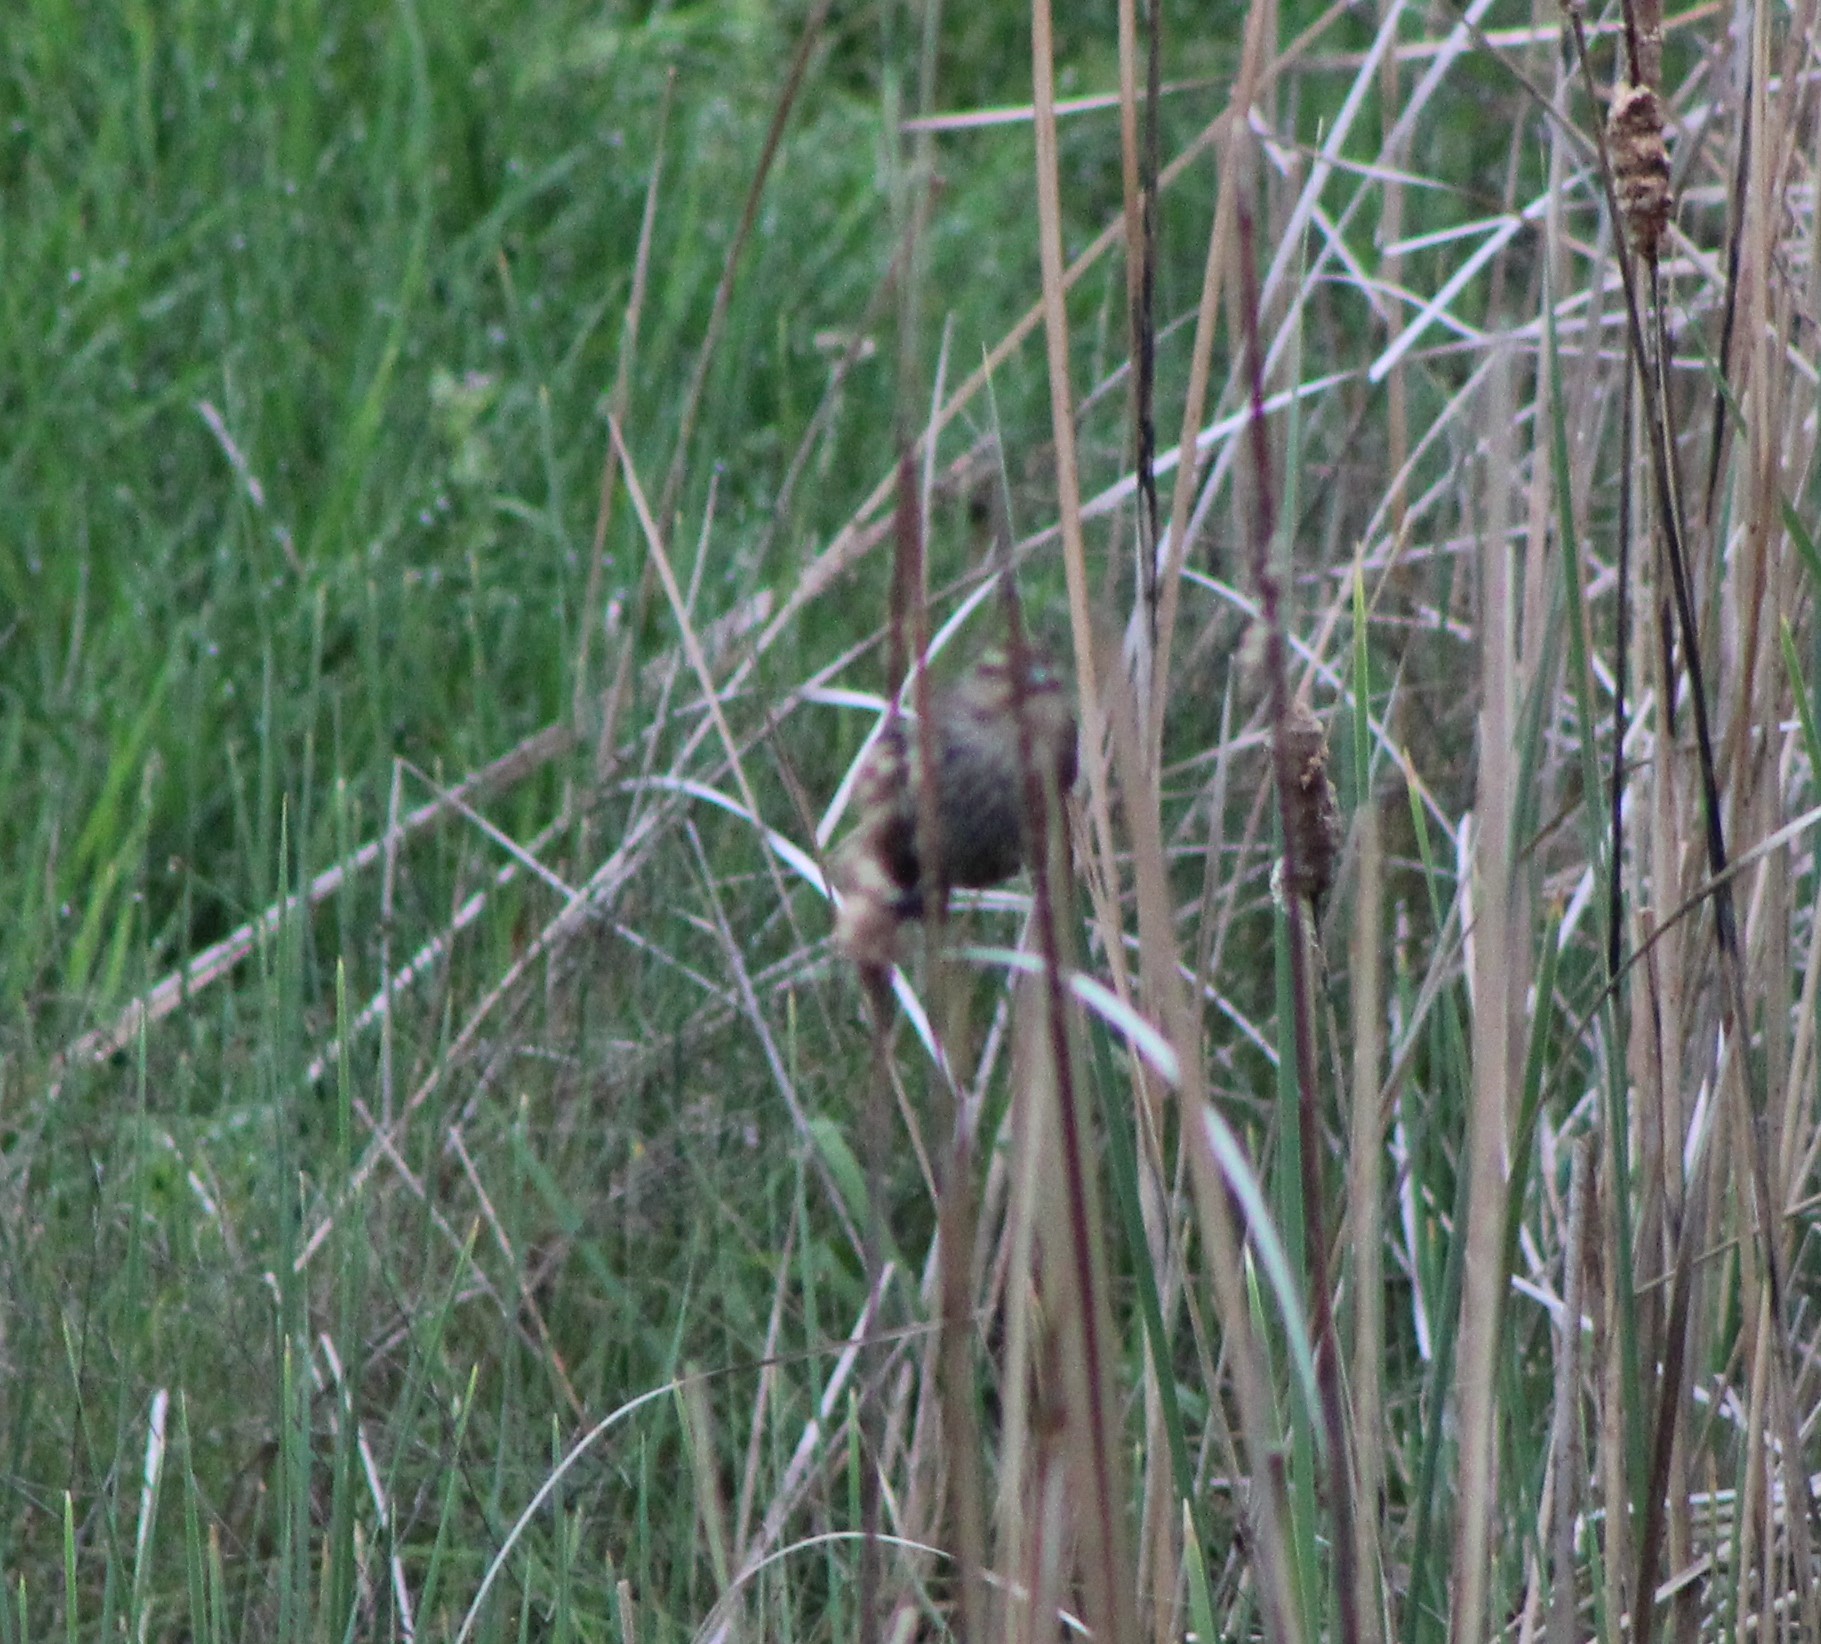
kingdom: Animalia
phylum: Chordata
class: Aves
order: Passeriformes
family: Icteridae
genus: Agelaius
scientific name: Agelaius phoeniceus
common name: Red-winged blackbird
